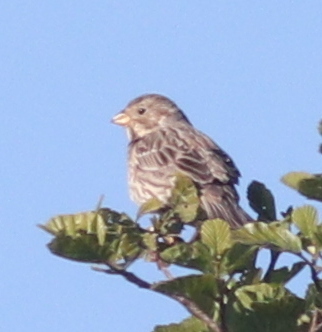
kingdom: Animalia
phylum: Chordata
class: Aves
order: Passeriformes
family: Emberizidae
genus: Emberiza
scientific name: Emberiza calandra
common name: Corn bunting
